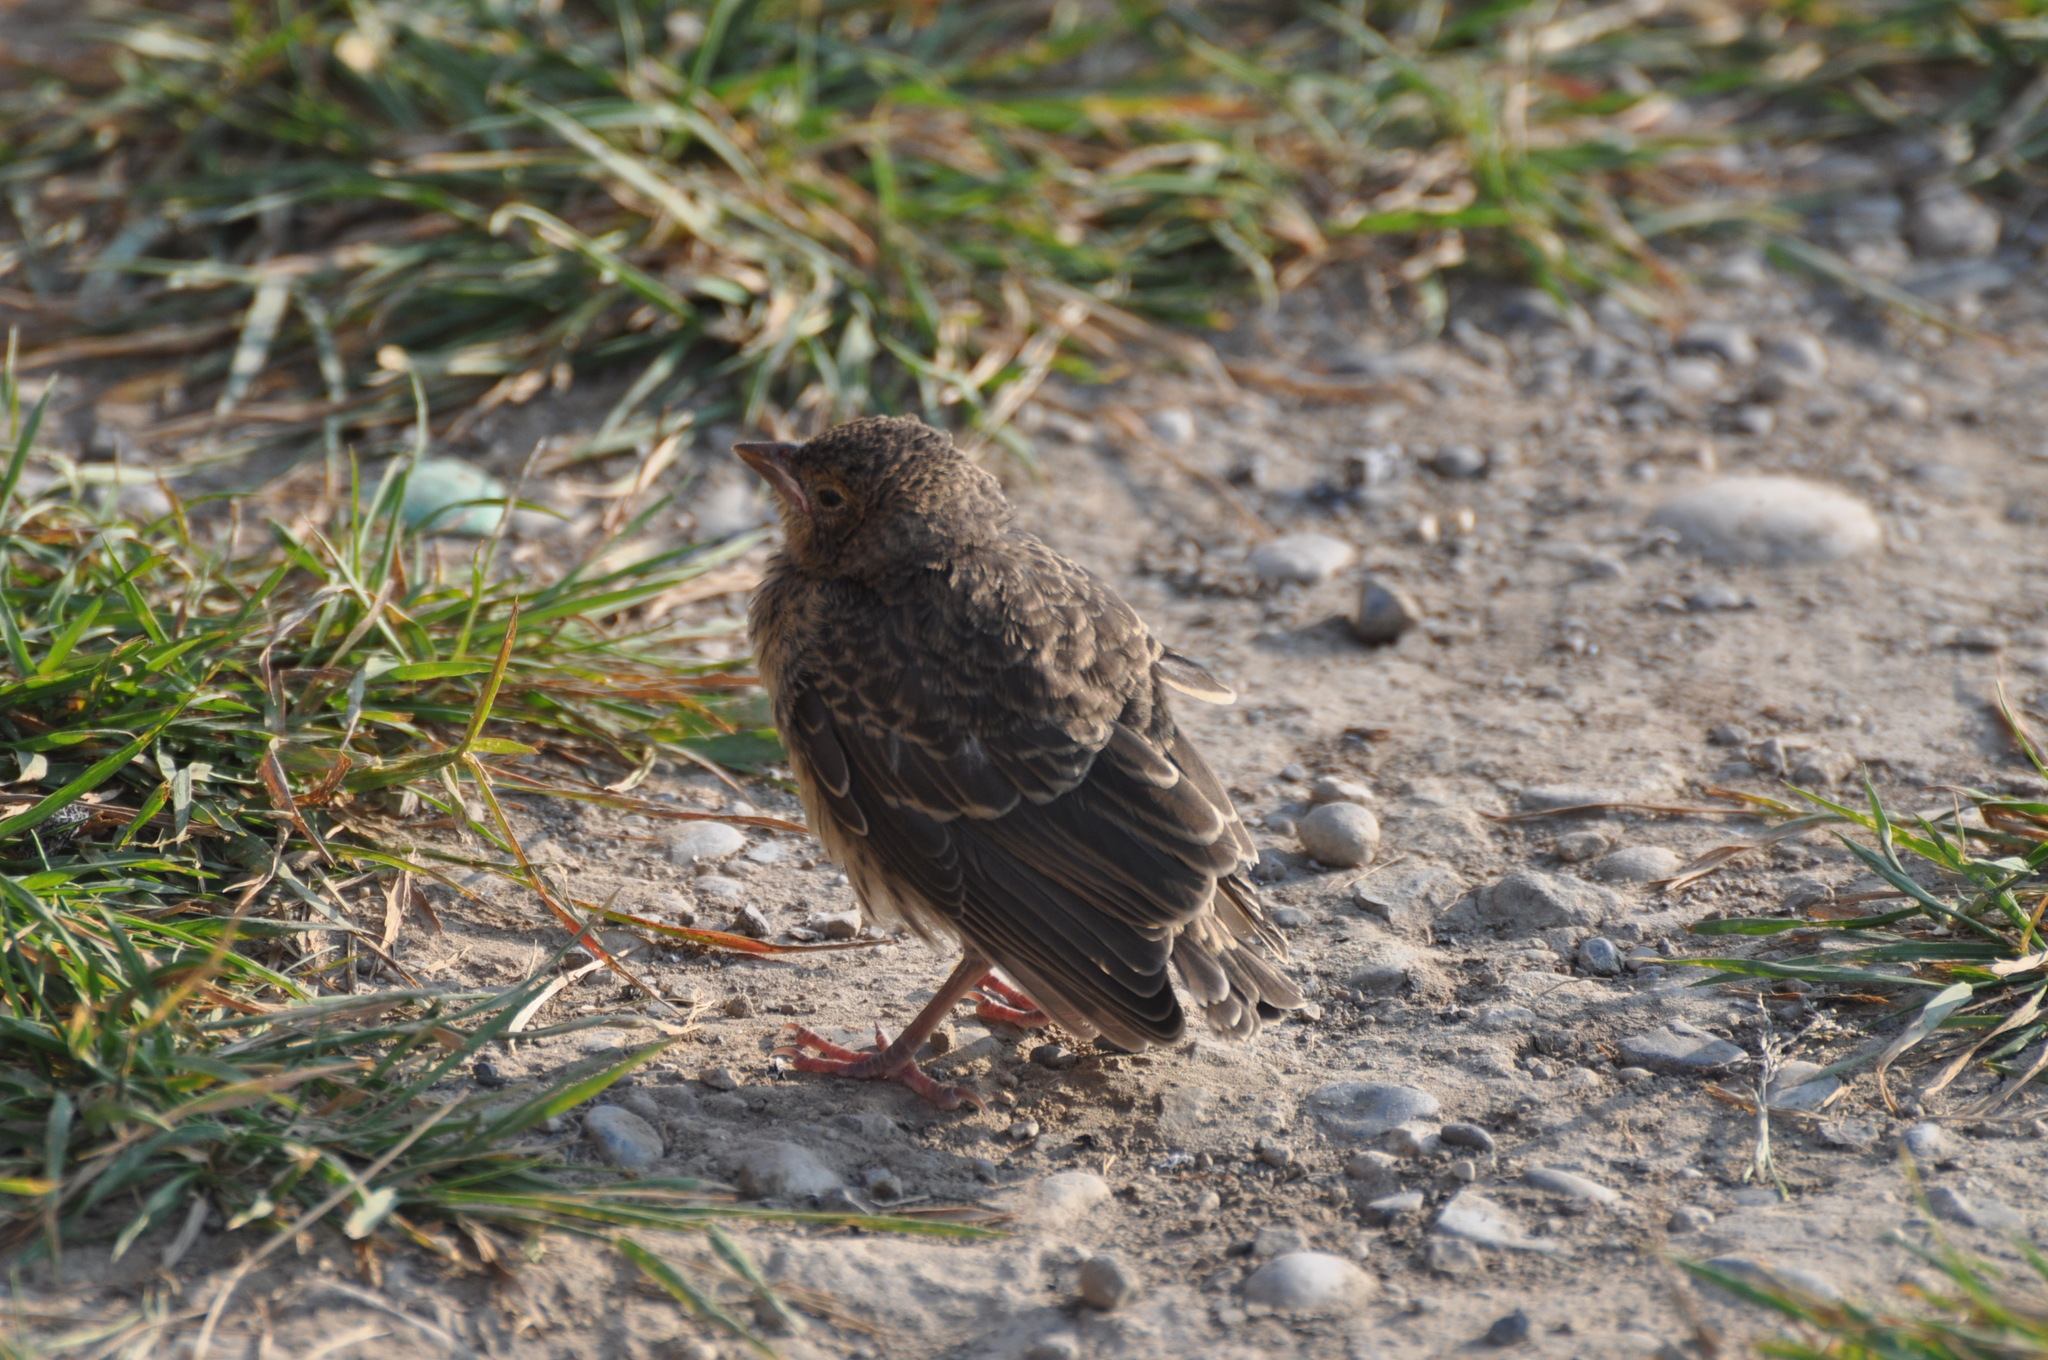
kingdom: Animalia
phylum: Chordata
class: Aves
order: Passeriformes
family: Turdidae
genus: Turdus
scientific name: Turdus migratorius
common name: American robin
